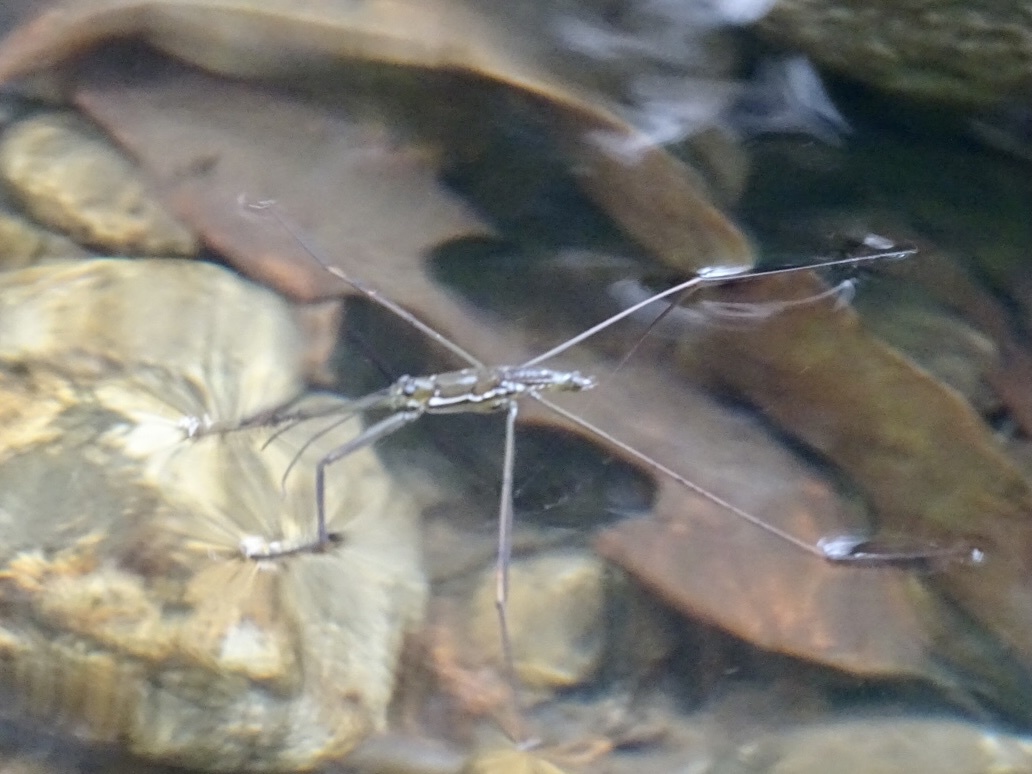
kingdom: Animalia
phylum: Arthropoda
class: Insecta
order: Hemiptera
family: Gerridae
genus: Ptilomera
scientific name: Ptilomera tigrina
